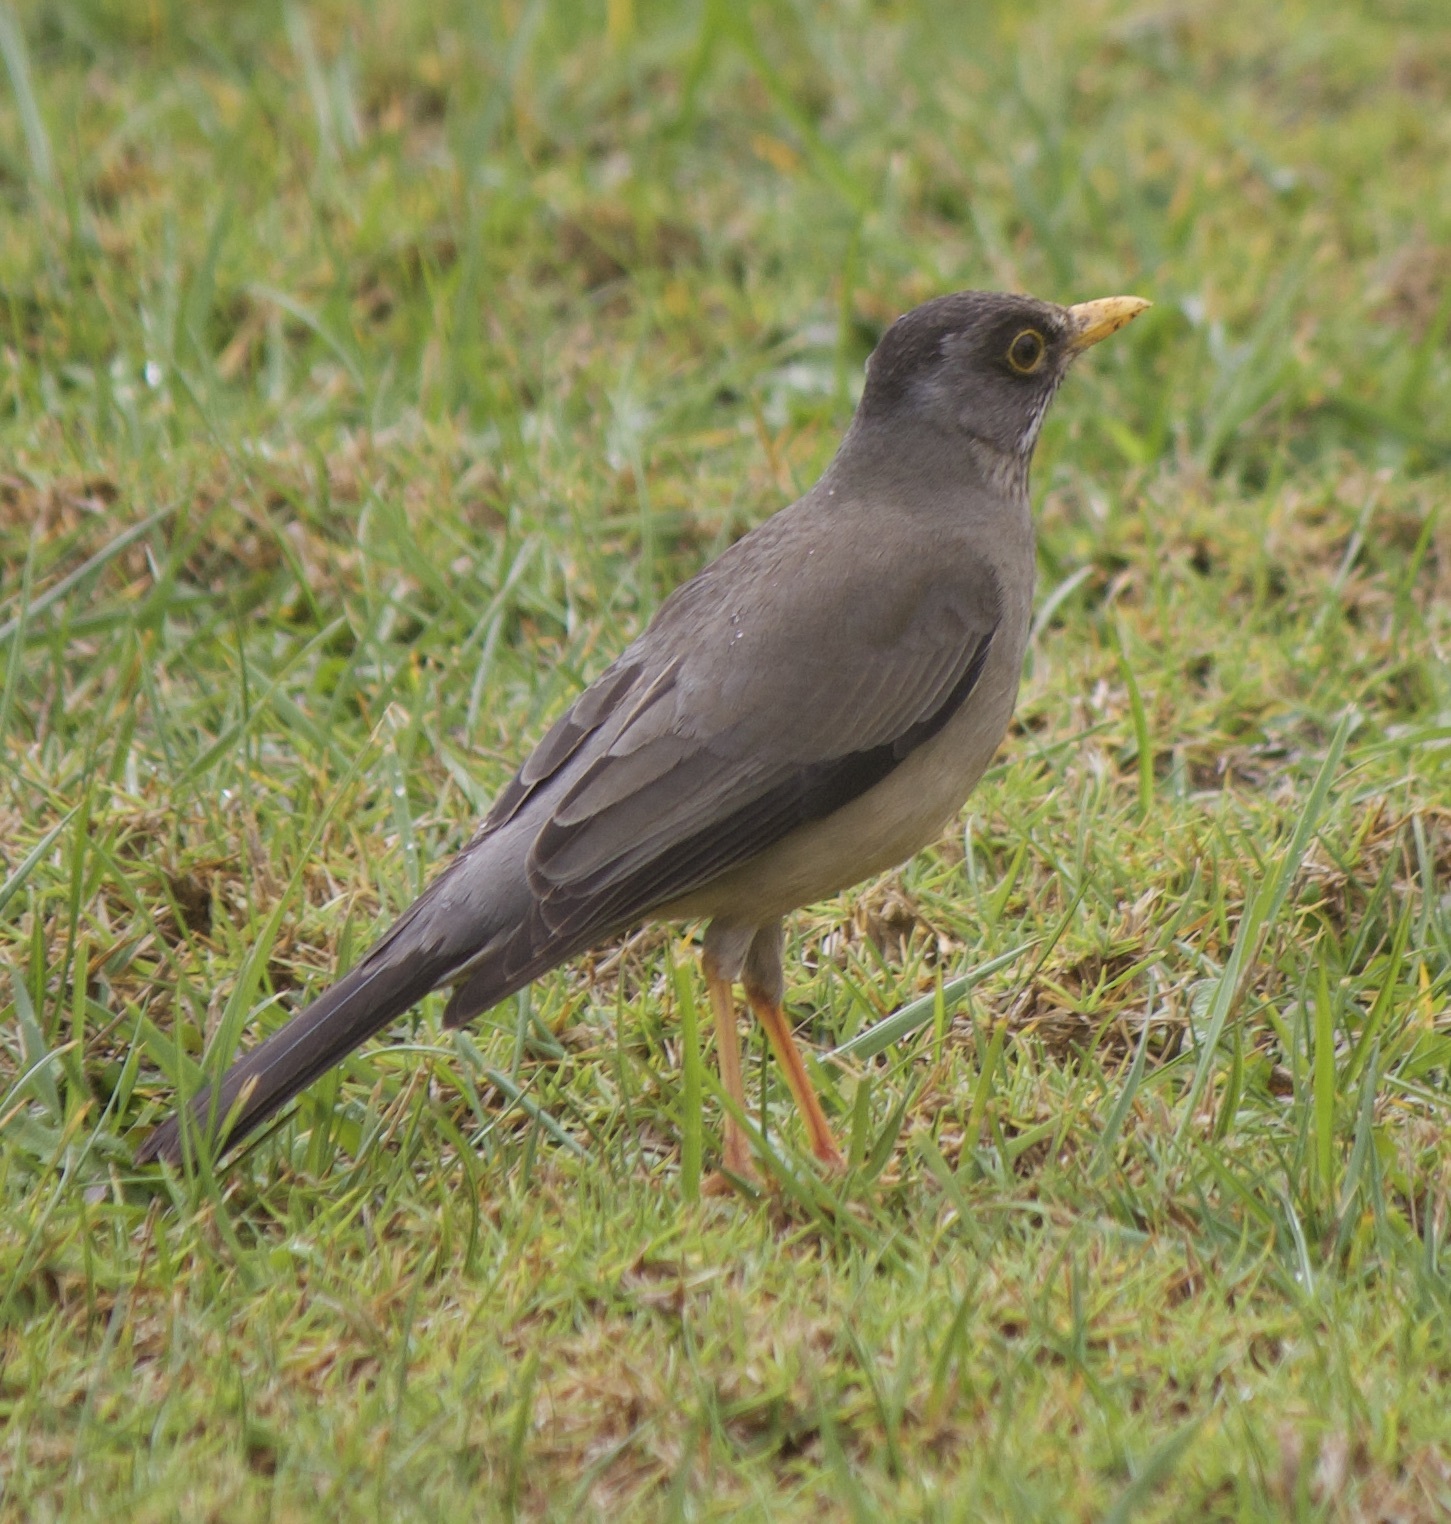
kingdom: Animalia
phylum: Chordata
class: Aves
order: Passeriformes
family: Turdidae
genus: Turdus
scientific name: Turdus falcklandii
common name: Austral thrush
